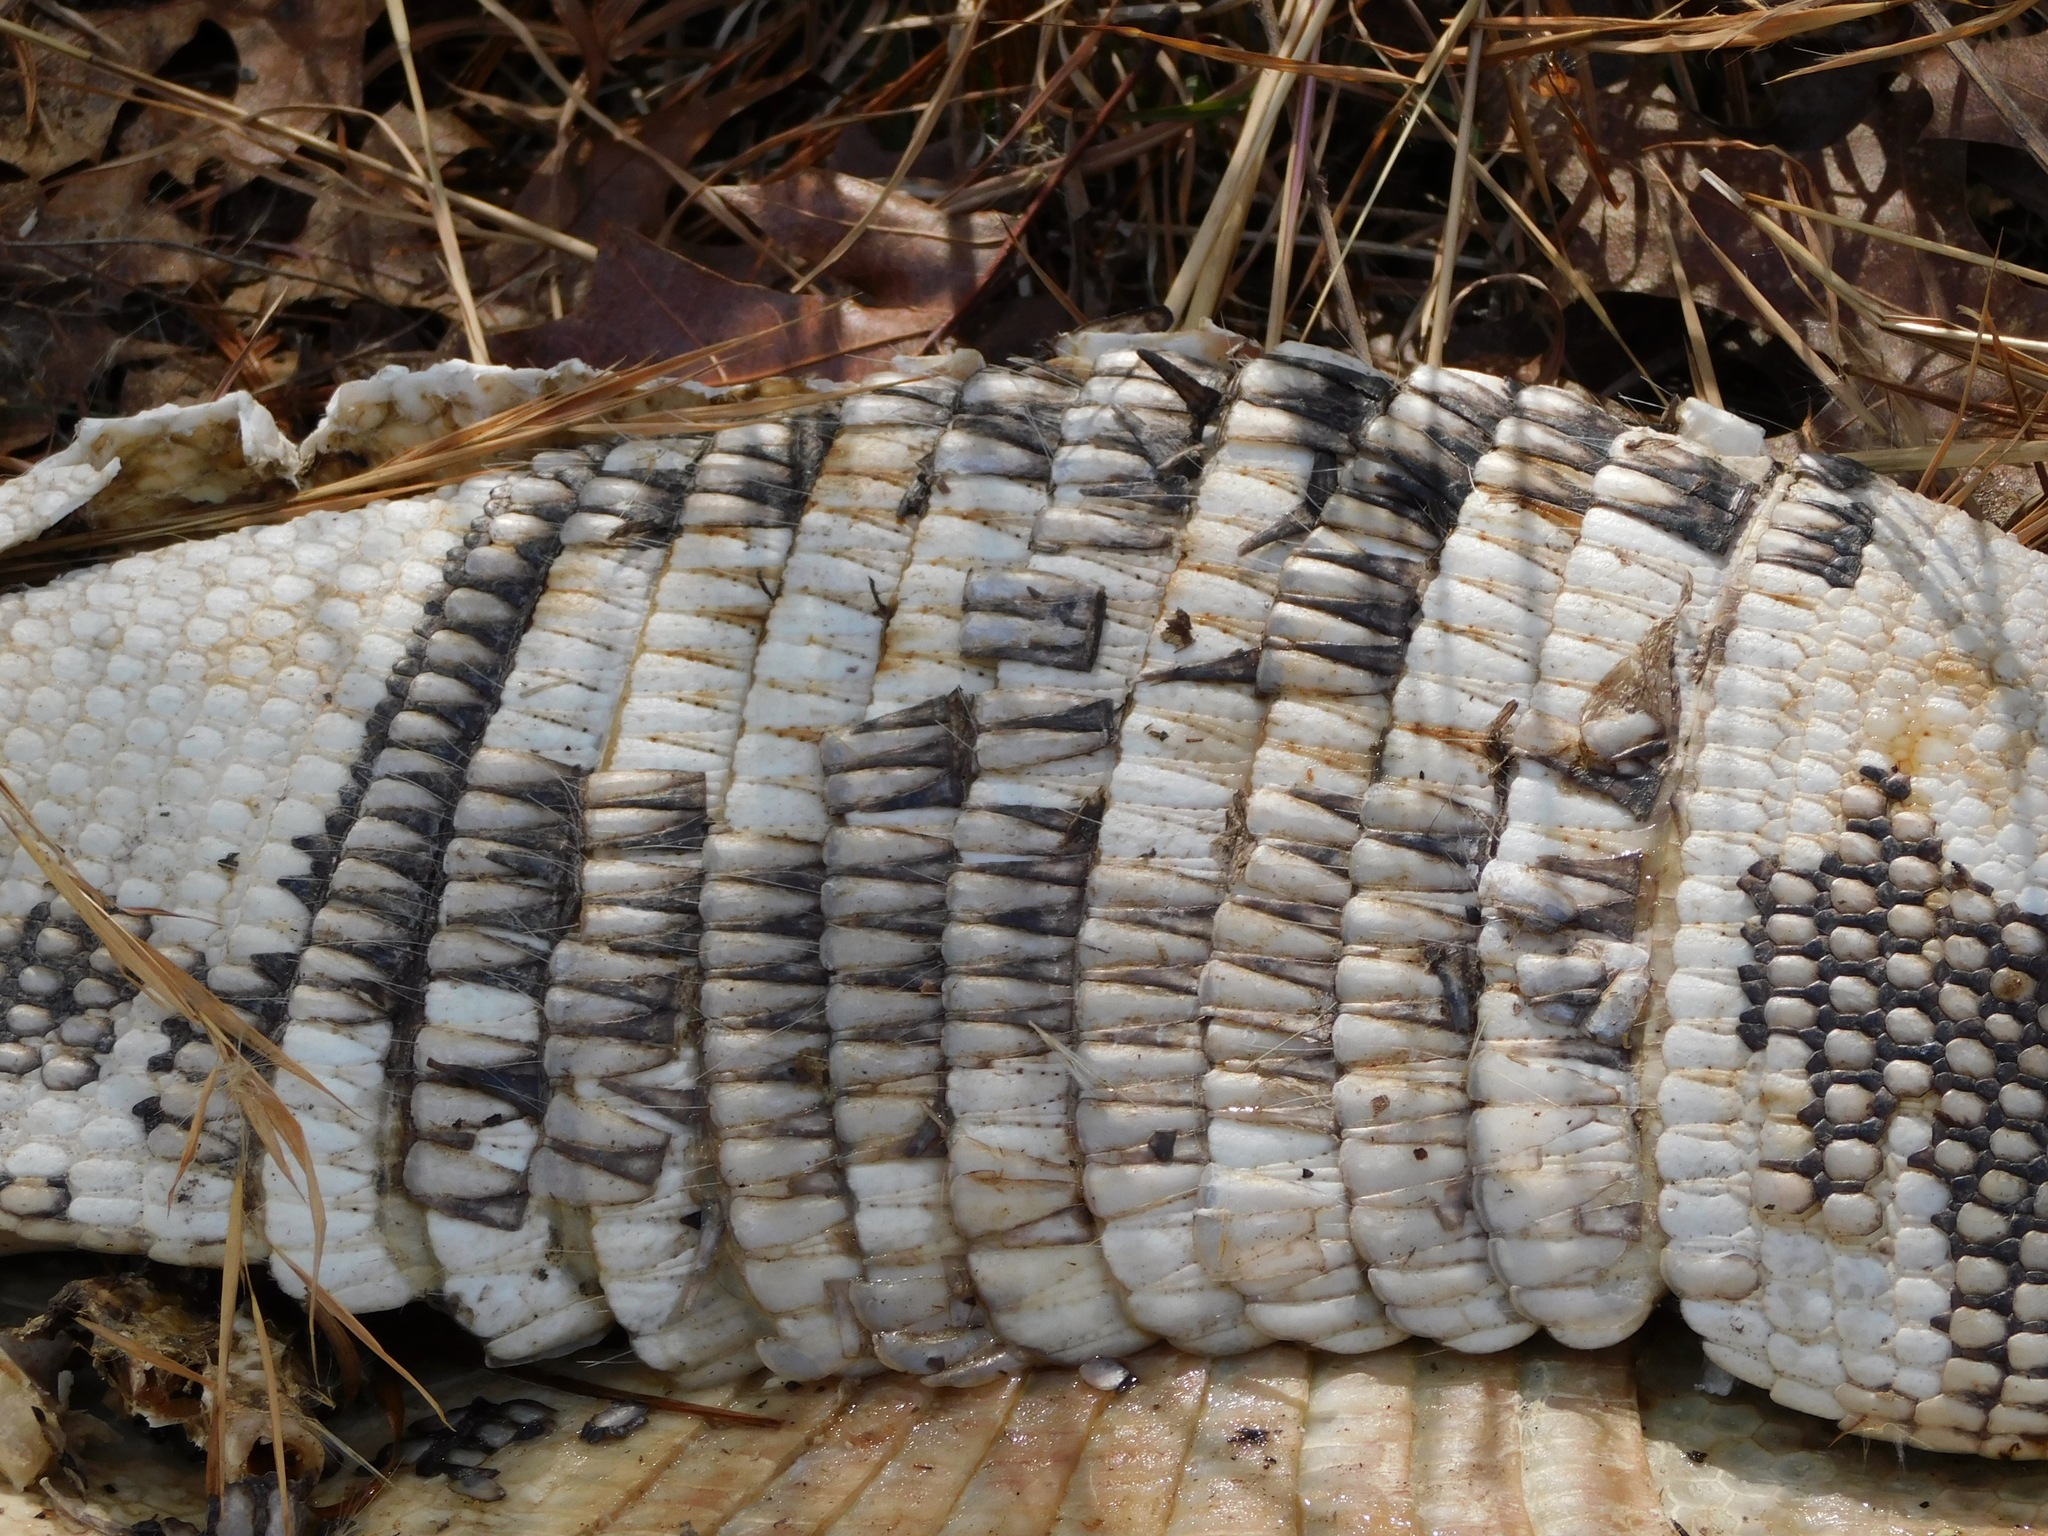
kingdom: Animalia
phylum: Chordata
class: Mammalia
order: Cingulata
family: Dasypodidae
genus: Dasypus
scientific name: Dasypus novemcinctus
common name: Nine-banded armadillo
